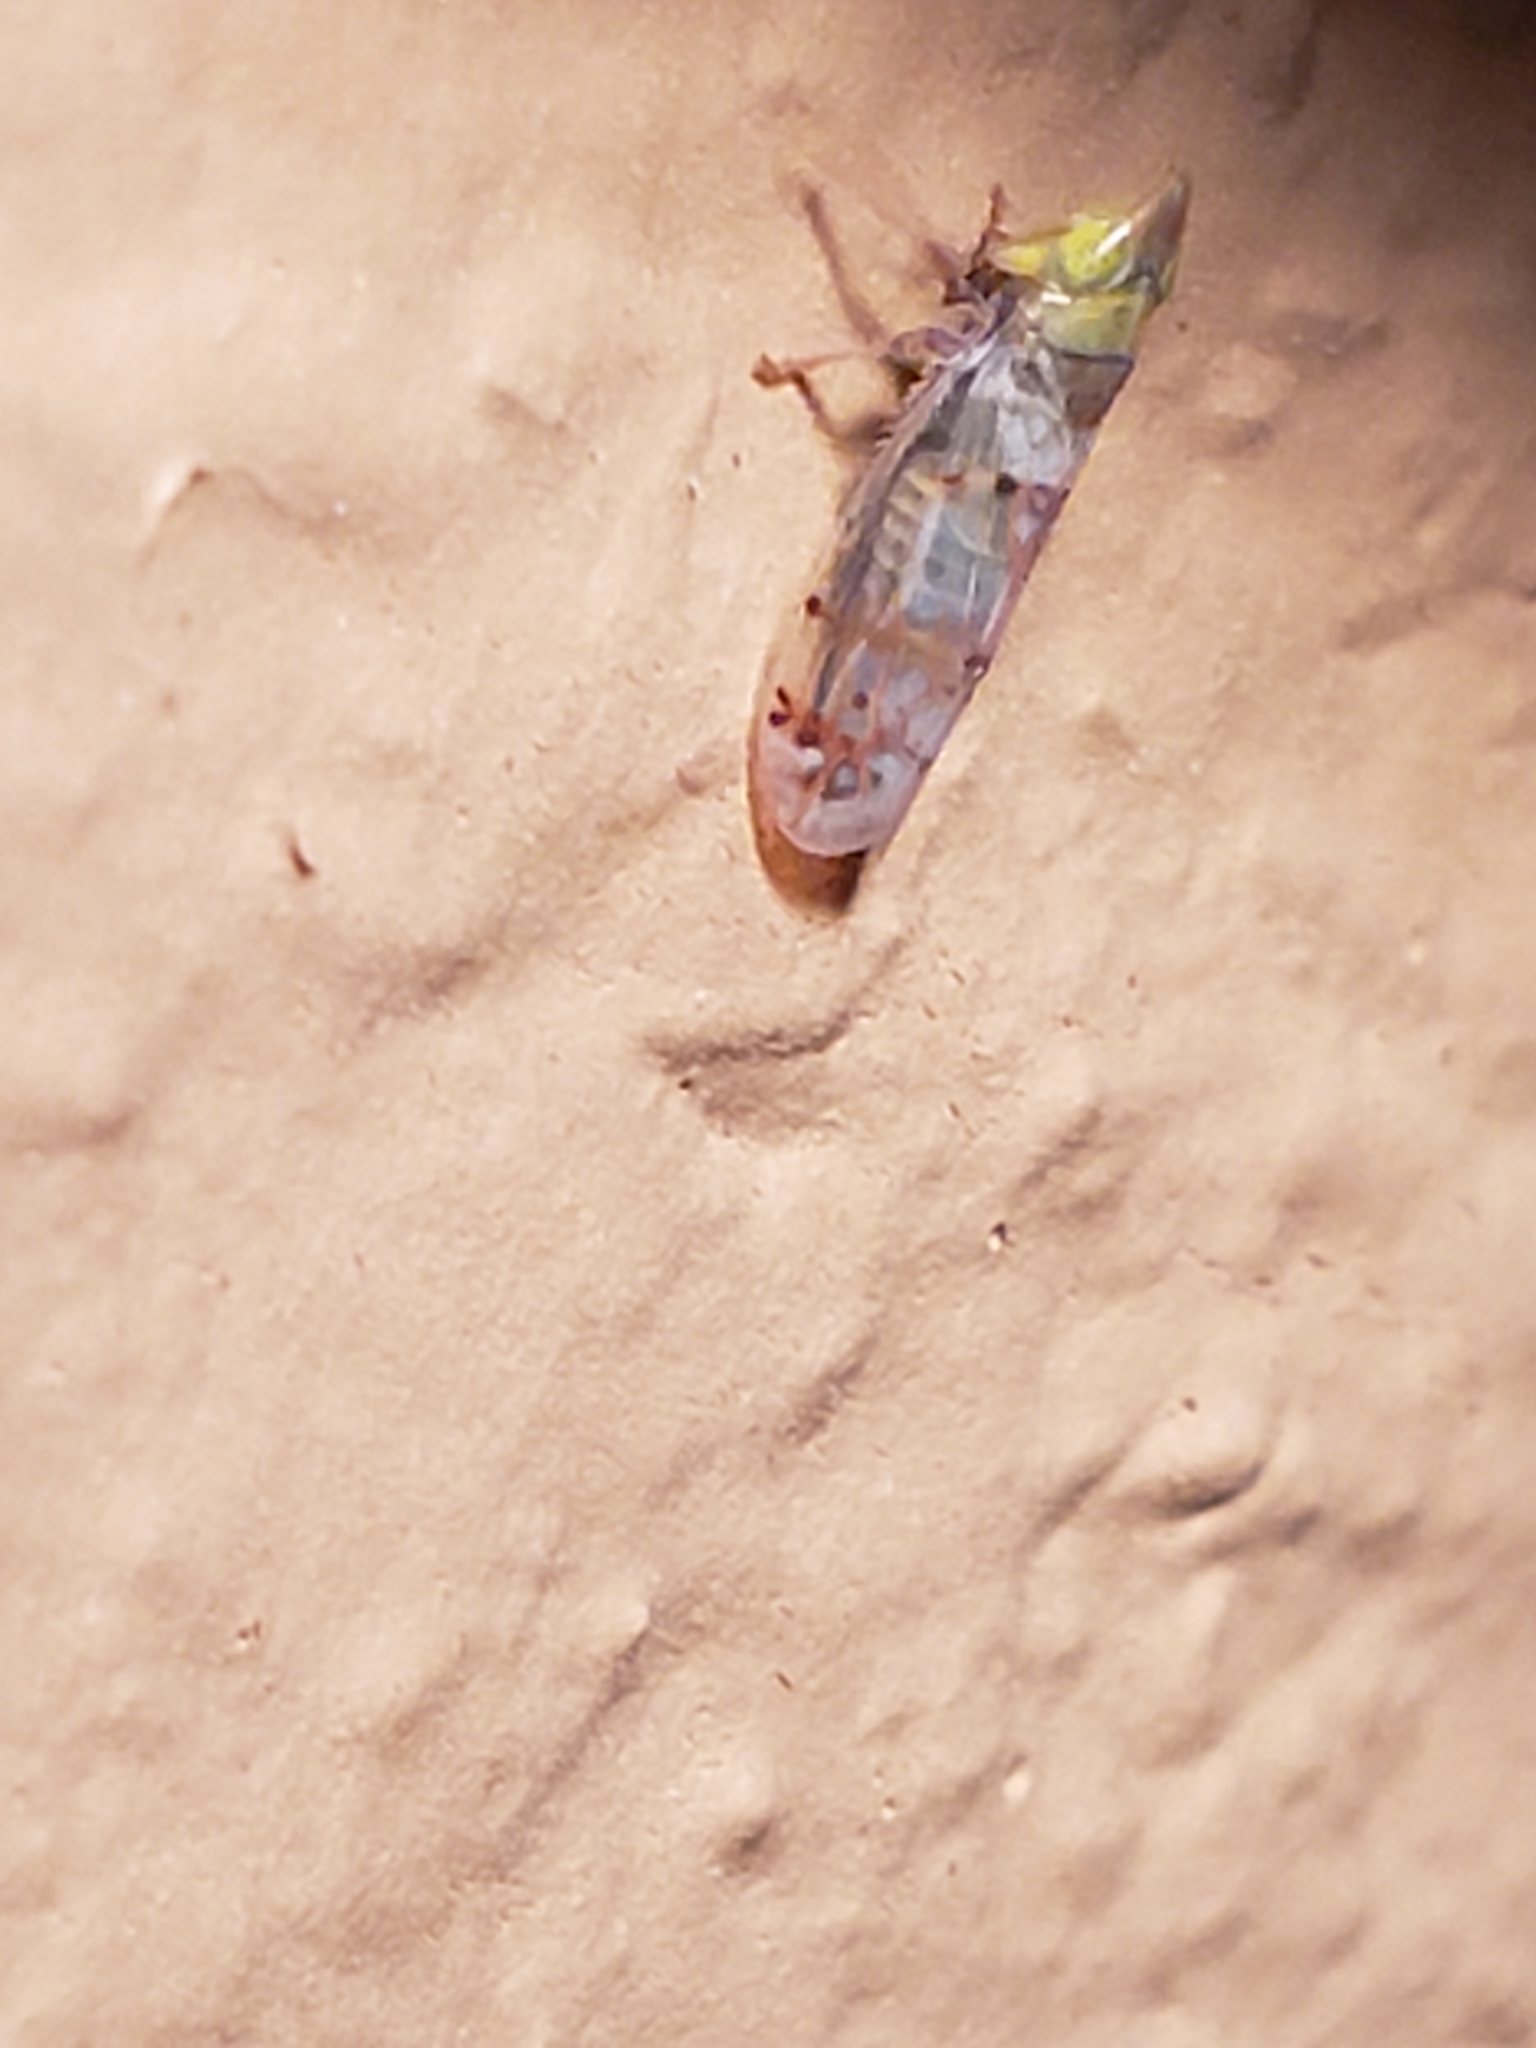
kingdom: Animalia
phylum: Arthropoda
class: Insecta
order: Hemiptera
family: Cicadellidae
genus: Japananus
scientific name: Japananus hyalinus
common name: The japanese maple leafhopper
